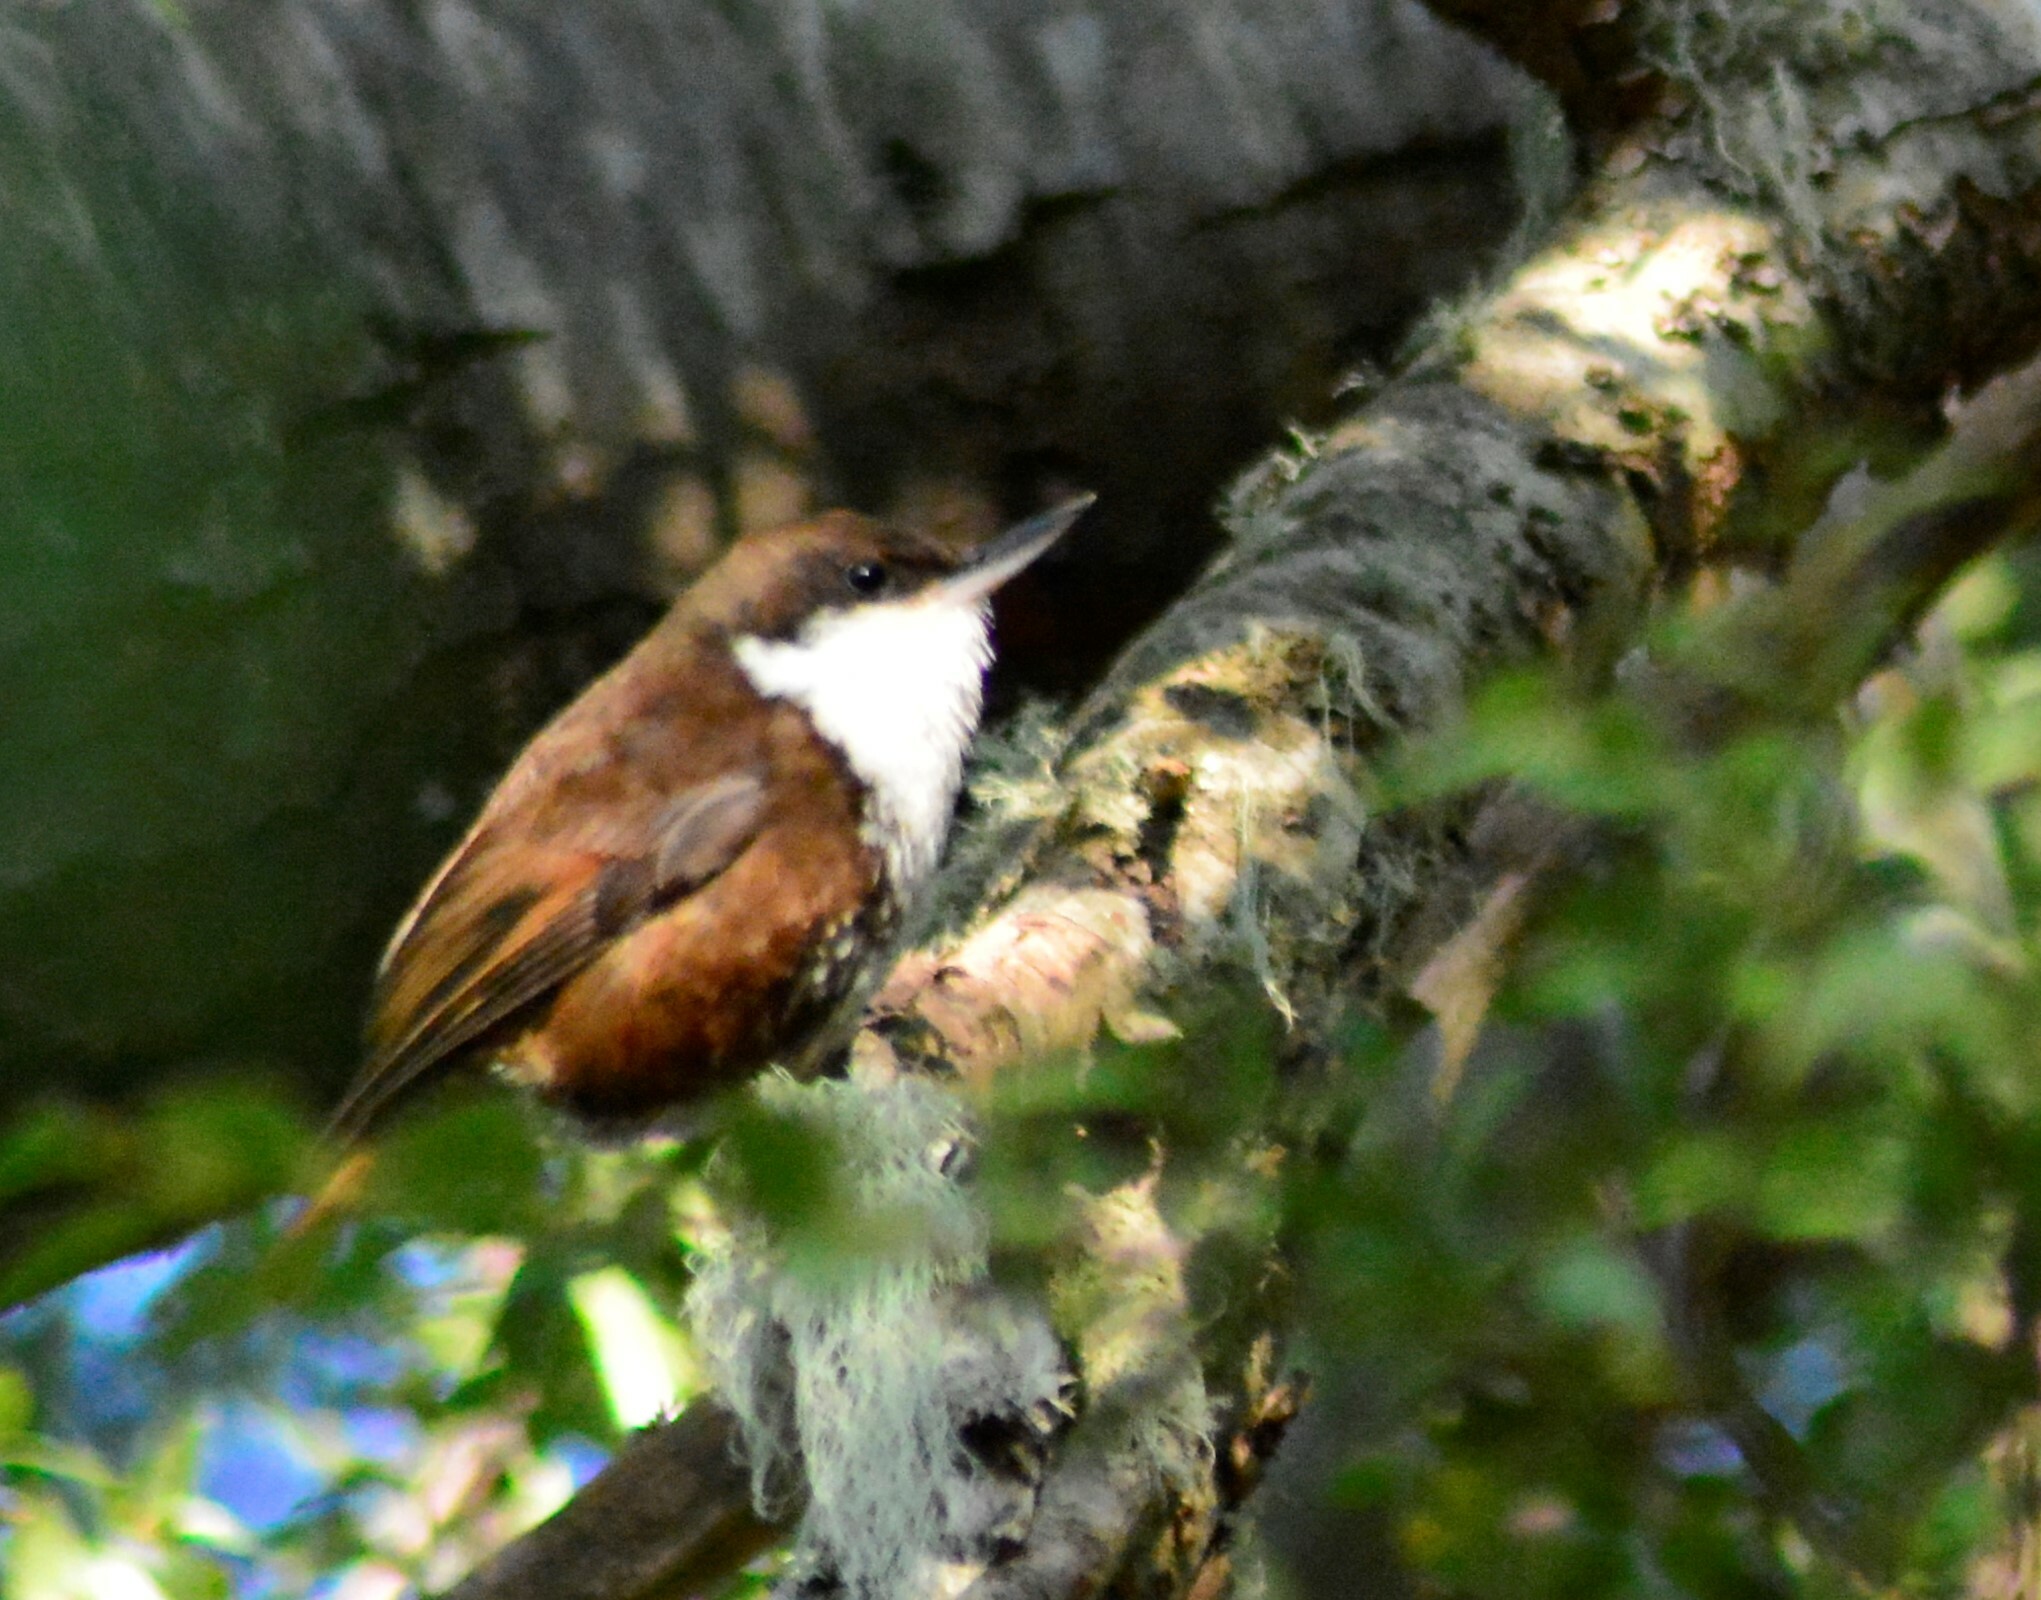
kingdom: Animalia
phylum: Chordata
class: Aves
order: Passeriformes
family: Furnariidae
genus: Pygarrhichas
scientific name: Pygarrhichas albogularis
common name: White-throated treerunner
